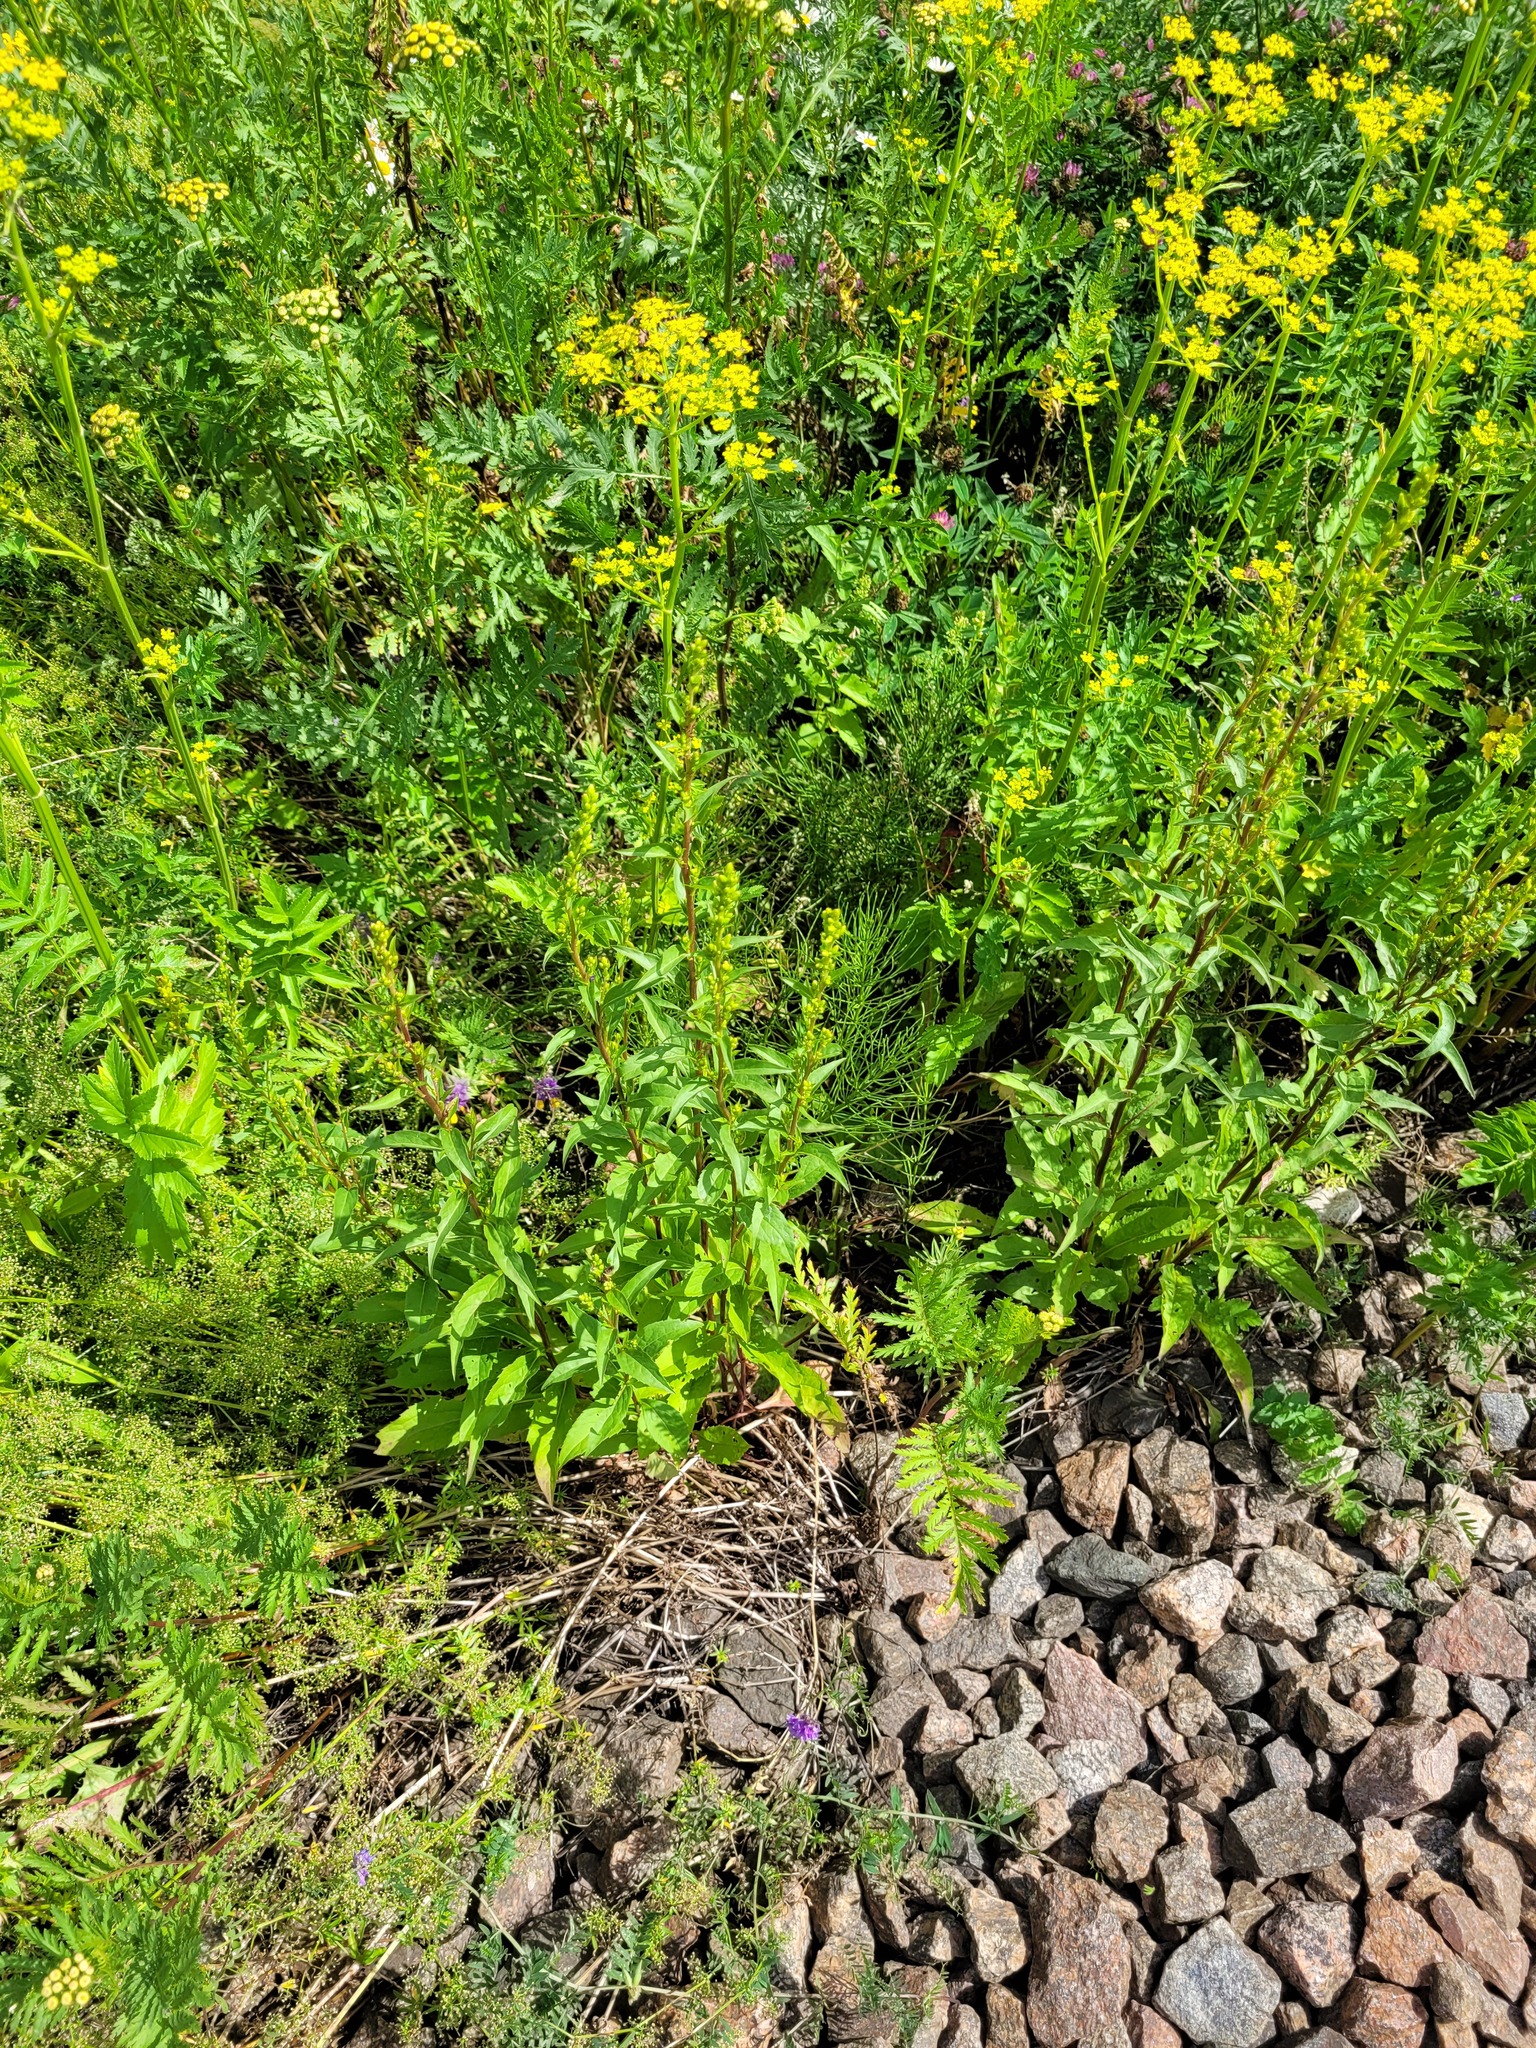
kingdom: Plantae
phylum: Tracheophyta
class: Magnoliopsida
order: Asterales
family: Asteraceae
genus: Solidago
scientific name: Solidago virgaurea
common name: Goldenrod
